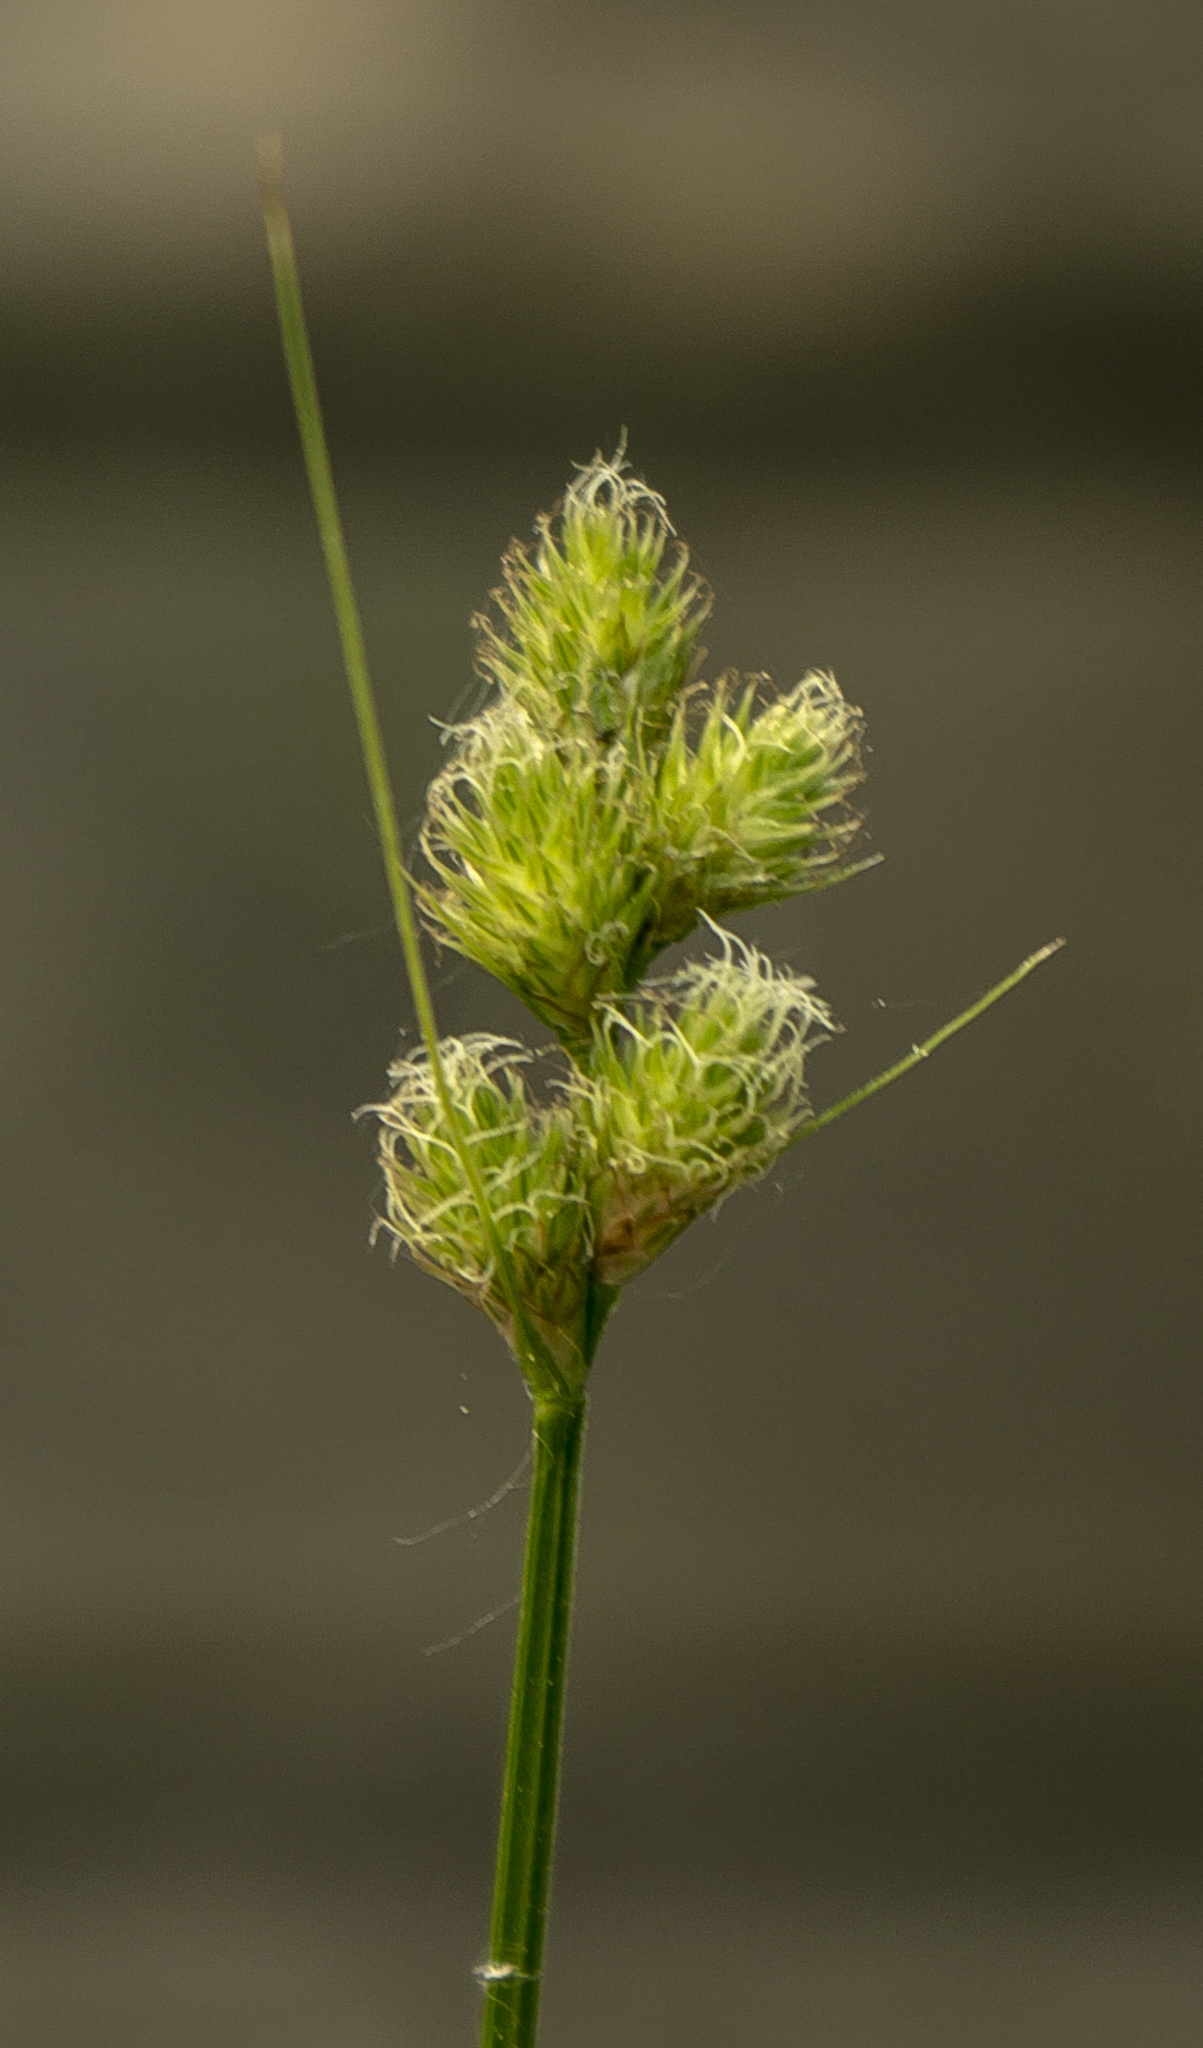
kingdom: Plantae
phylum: Tracheophyta
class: Liliopsida
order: Poales
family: Cyperaceae
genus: Carex
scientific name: Carex tribuloides
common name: Blunt broom sedge
